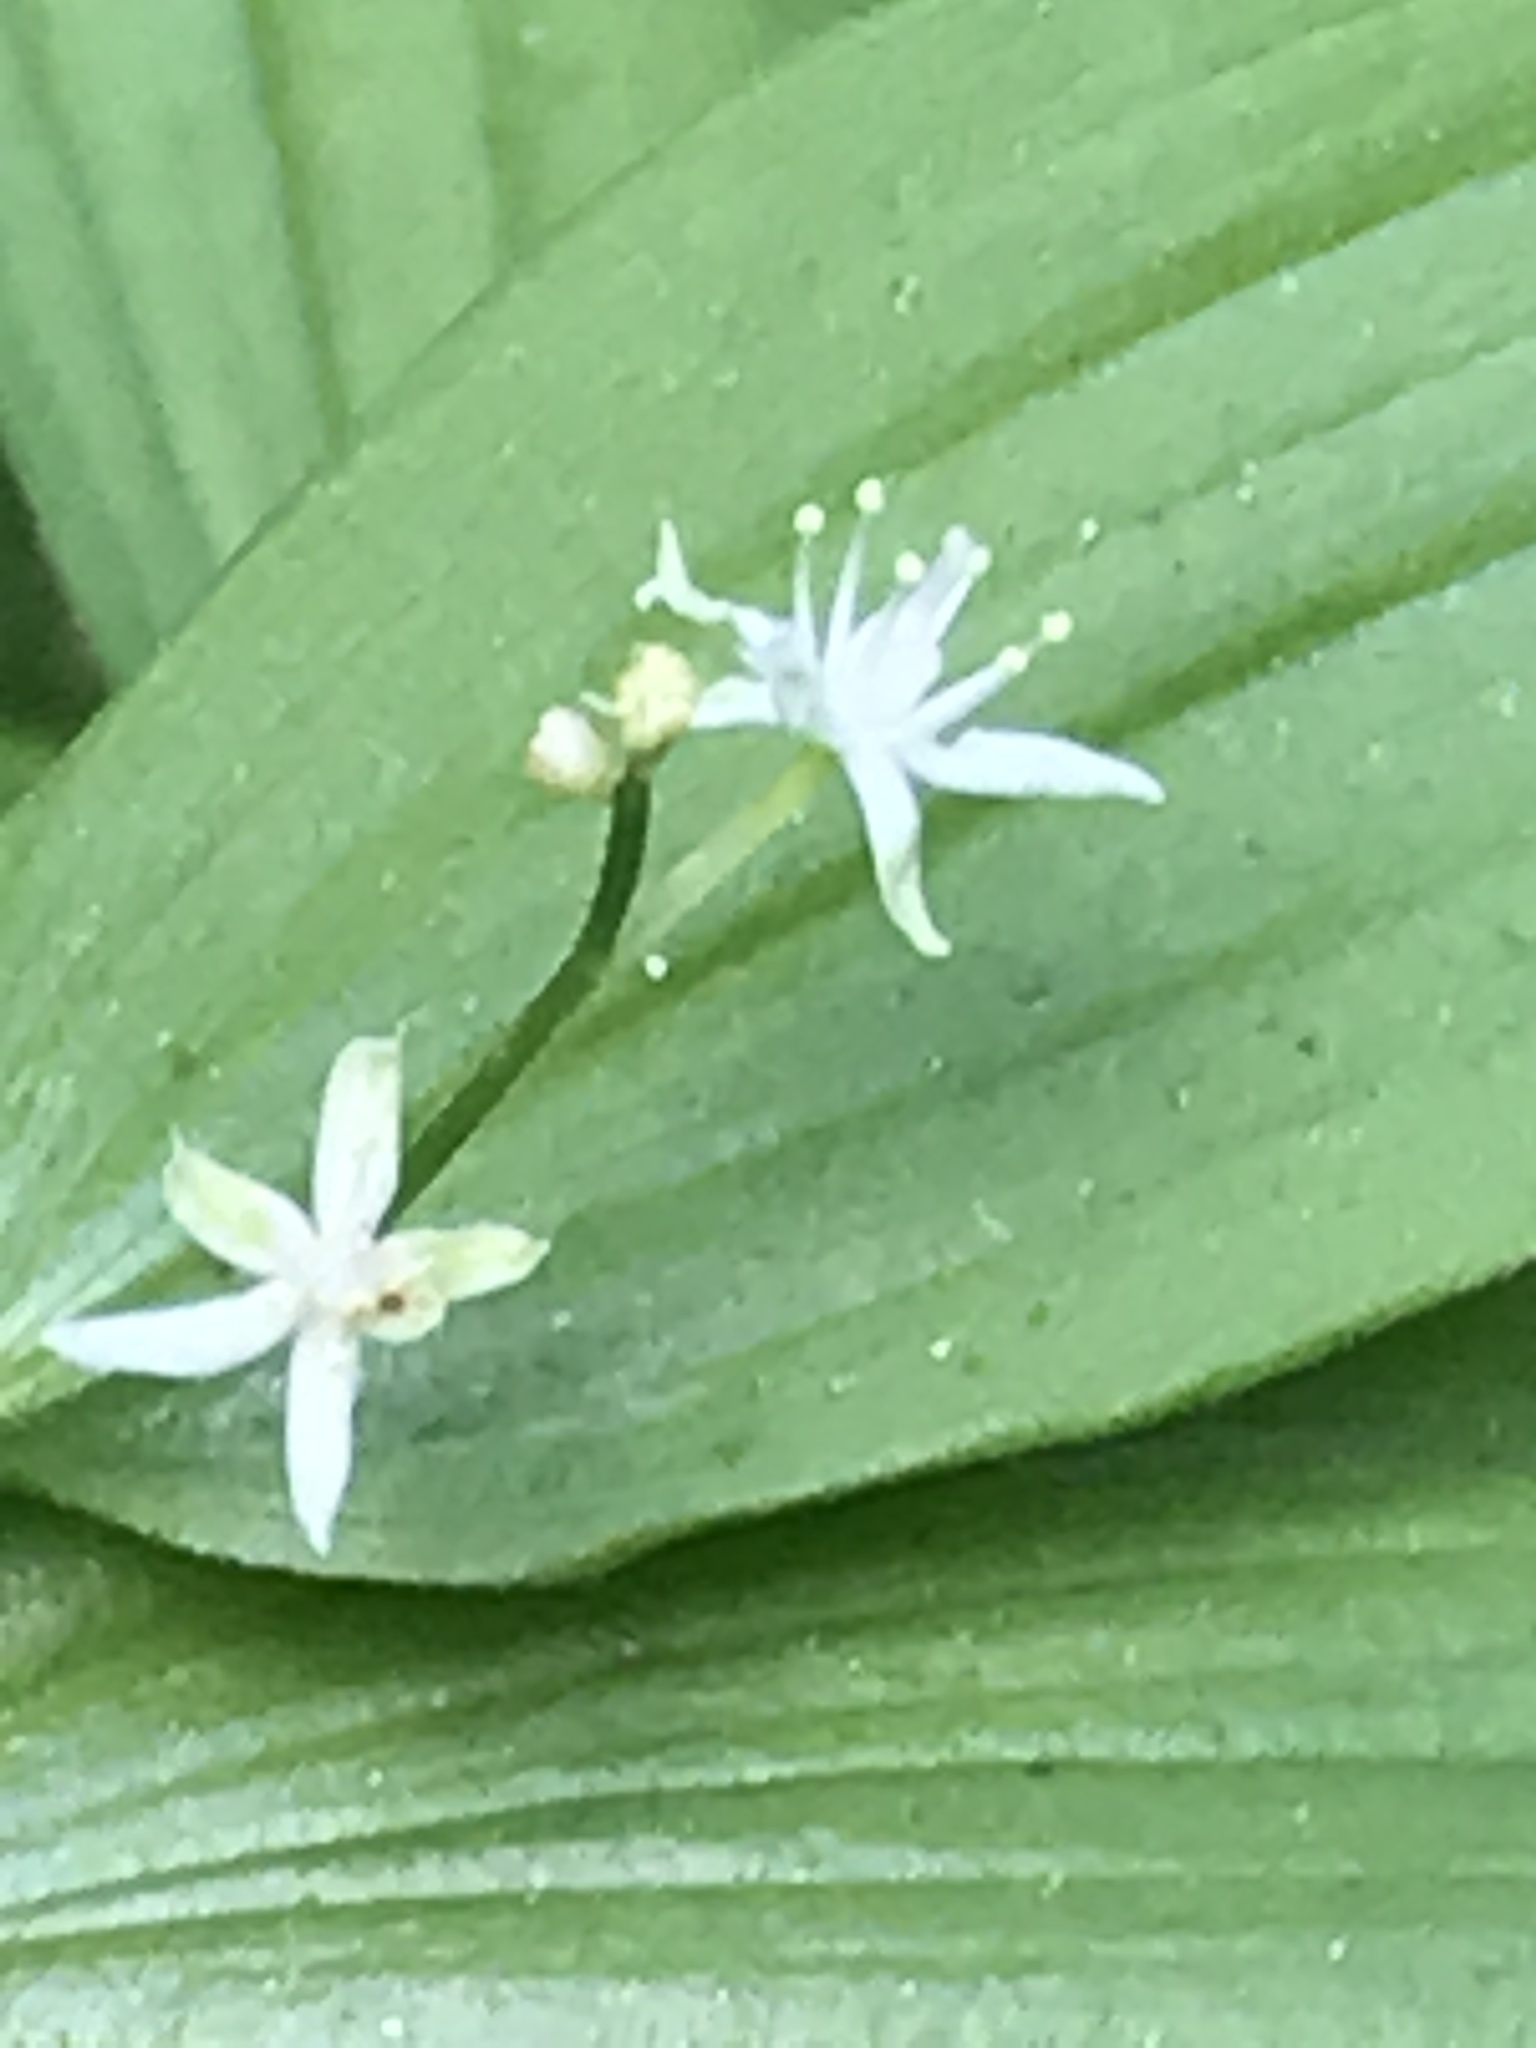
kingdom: Plantae
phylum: Tracheophyta
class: Liliopsida
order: Asparagales
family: Asparagaceae
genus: Maianthemum
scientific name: Maianthemum stellatum
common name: Little false solomon's seal
